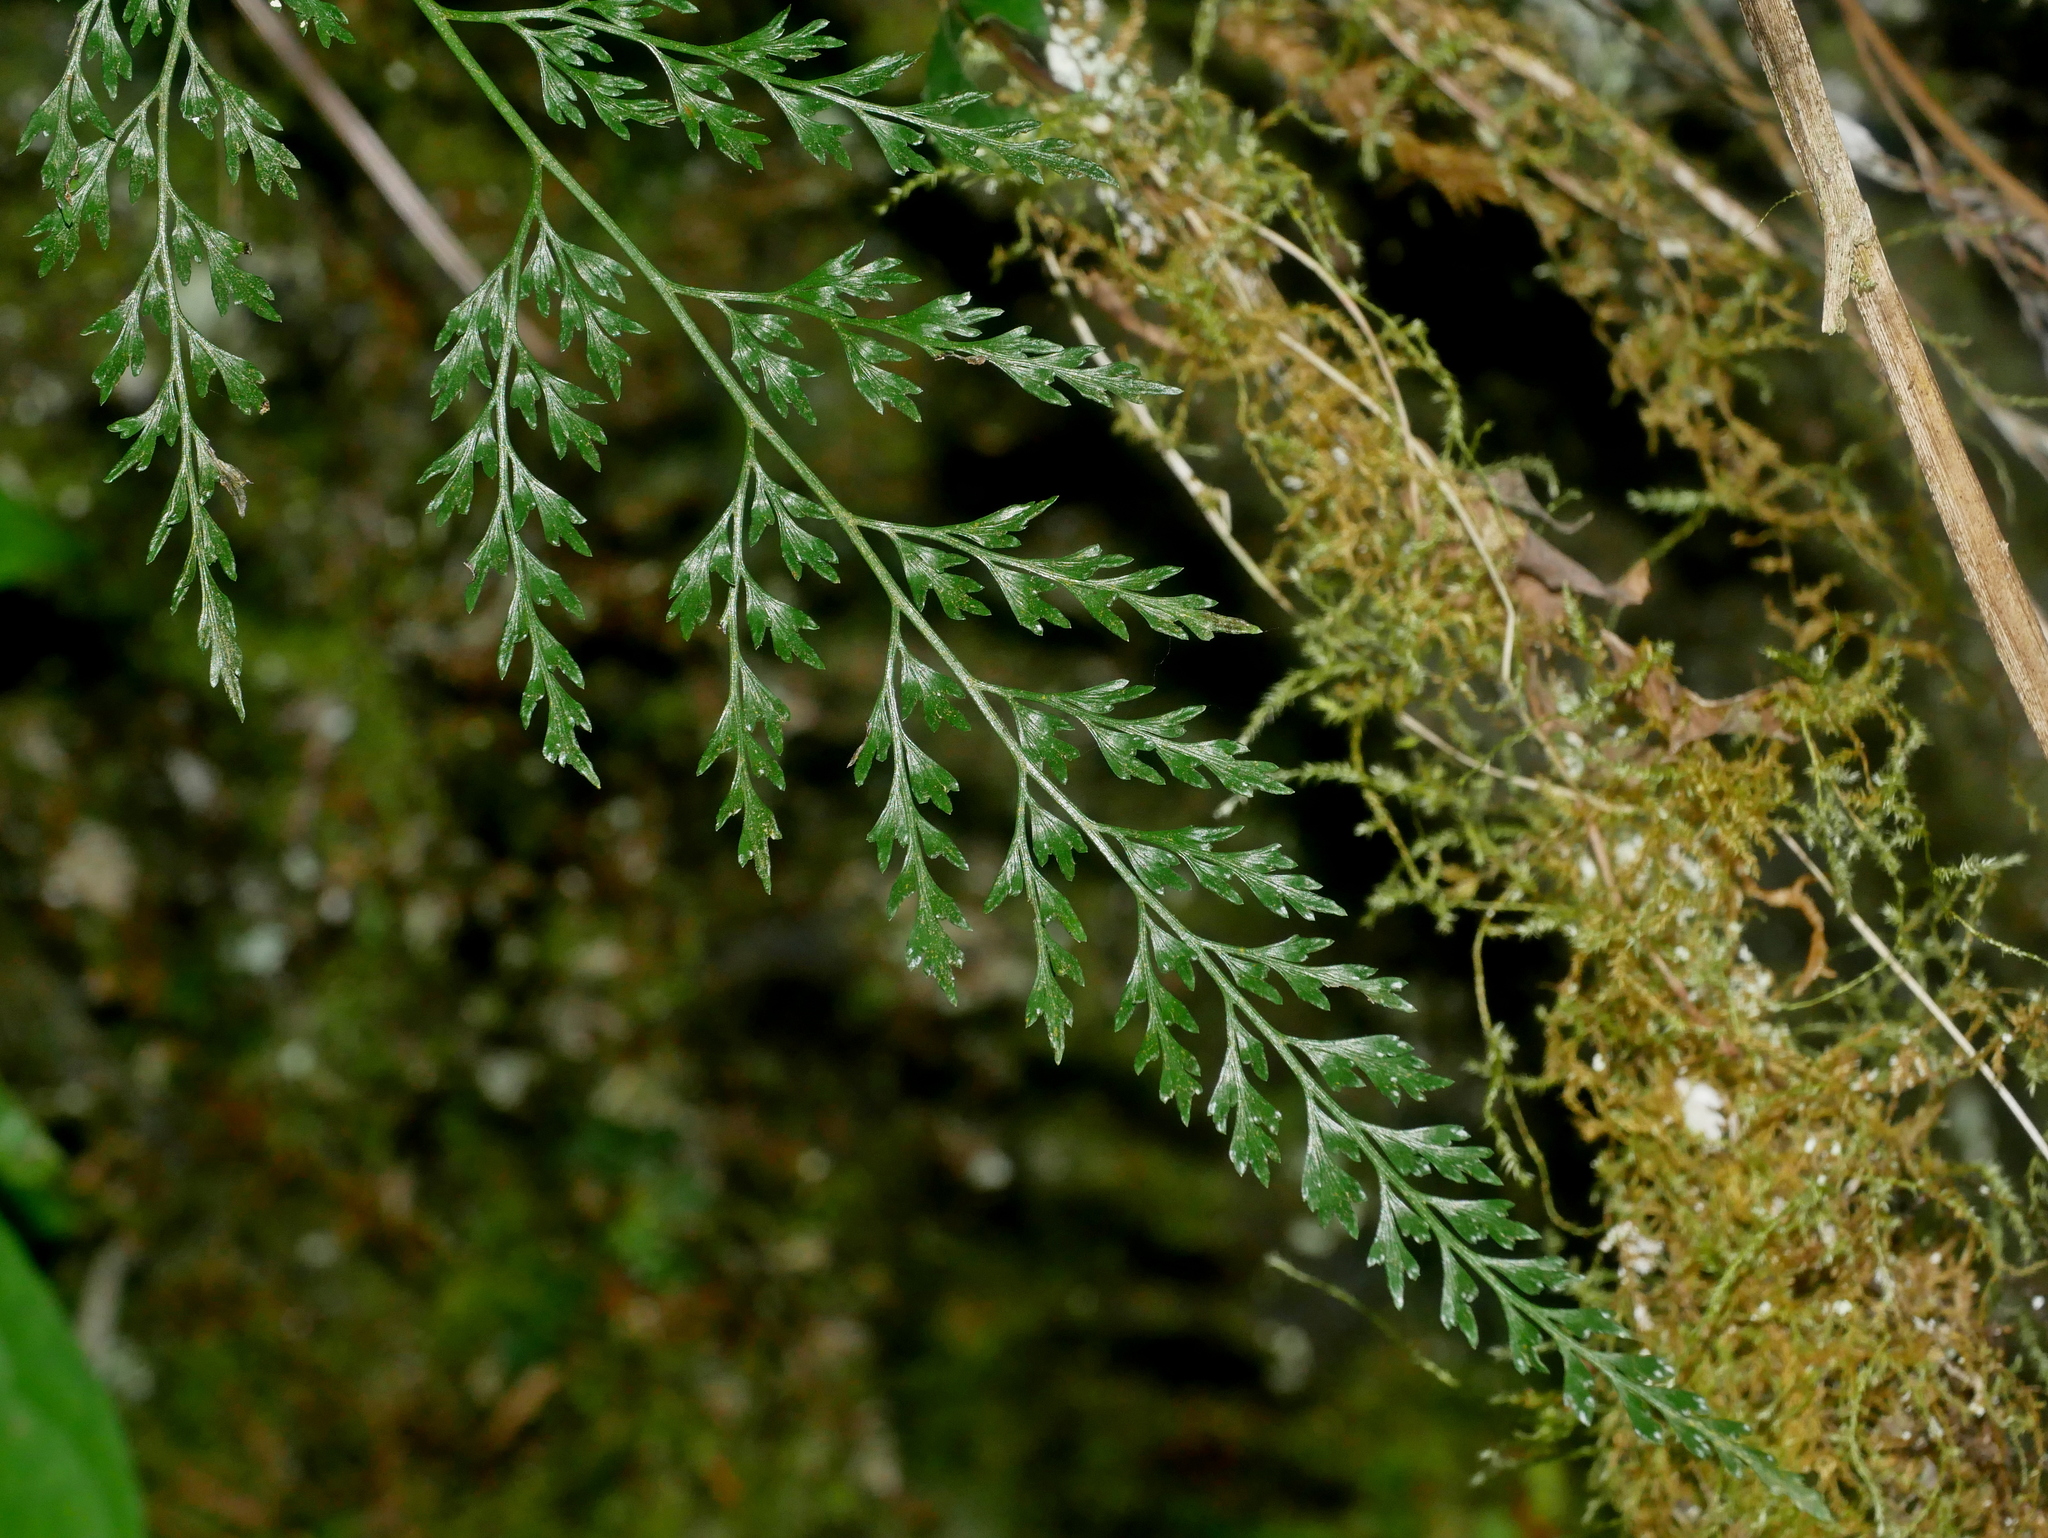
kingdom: Plantae
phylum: Tracheophyta
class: Polypodiopsida
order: Polypodiales
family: Pteridaceae
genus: Onychium
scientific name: Onychium japonicum
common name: Carrot fern
